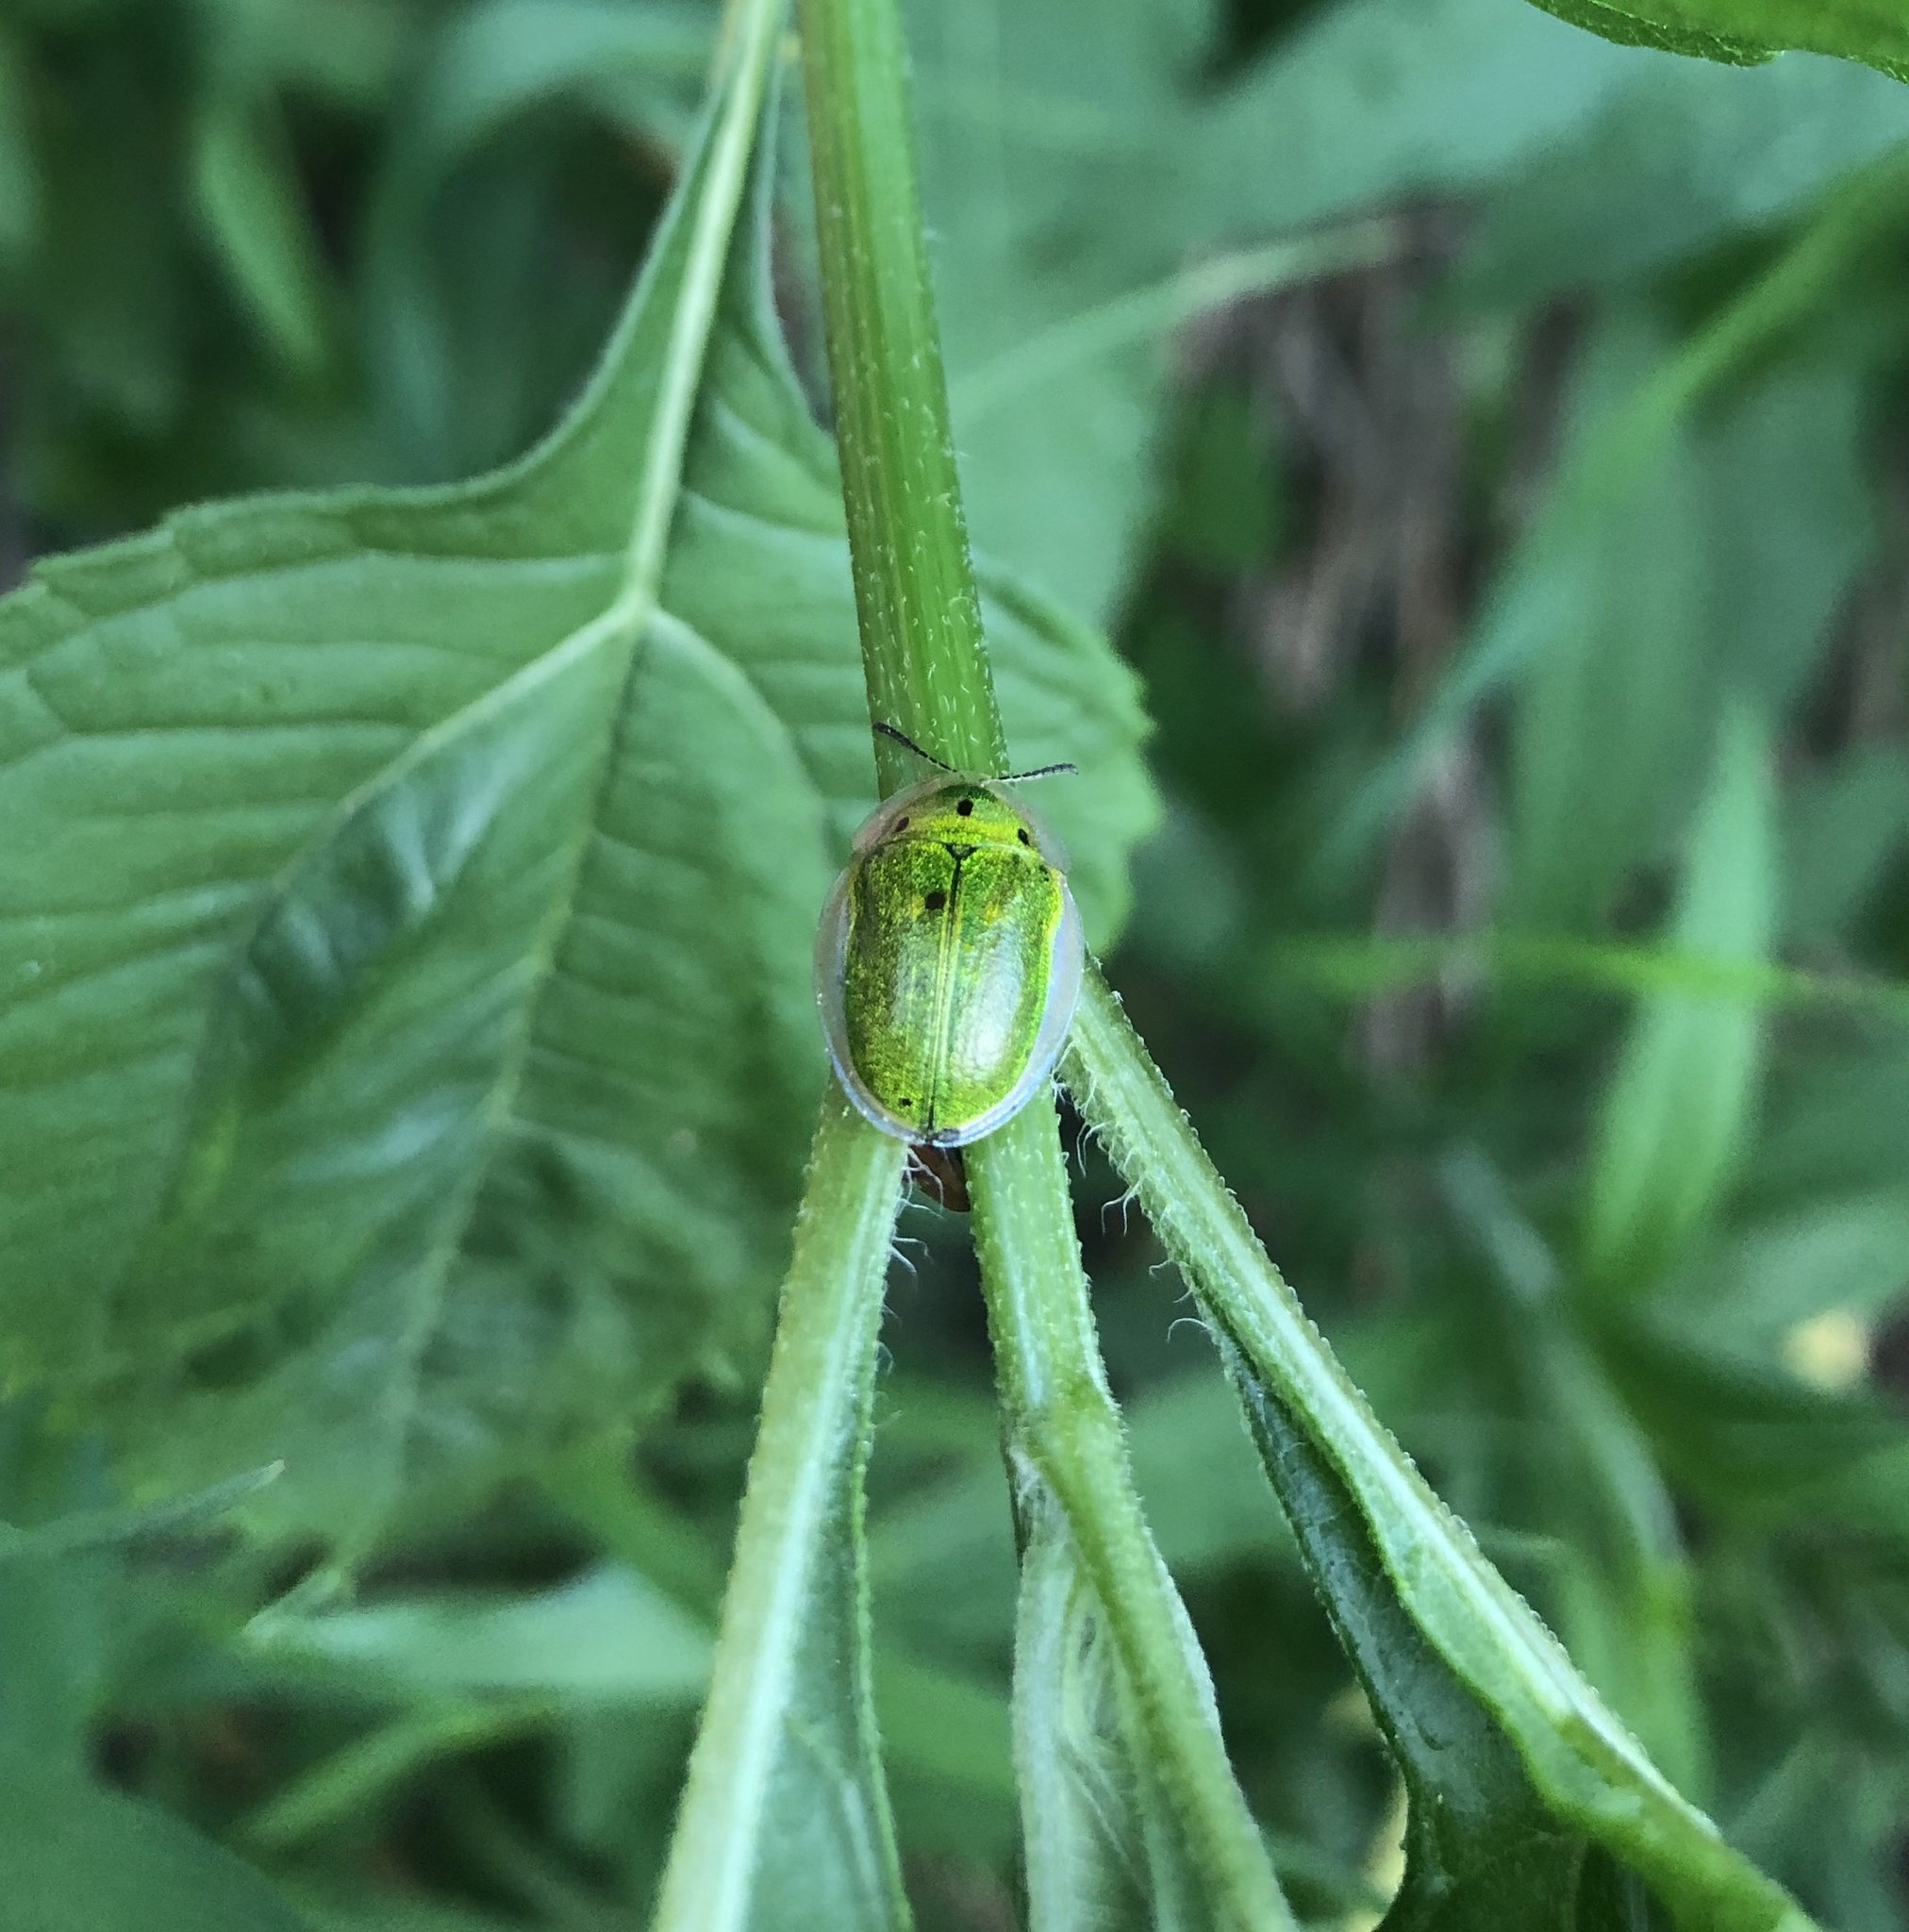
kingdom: Animalia
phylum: Arthropoda
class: Insecta
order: Coleoptera
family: Chrysomelidae
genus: Physonota
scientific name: Physonota helianthi
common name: Sunflower tortoise beetle
